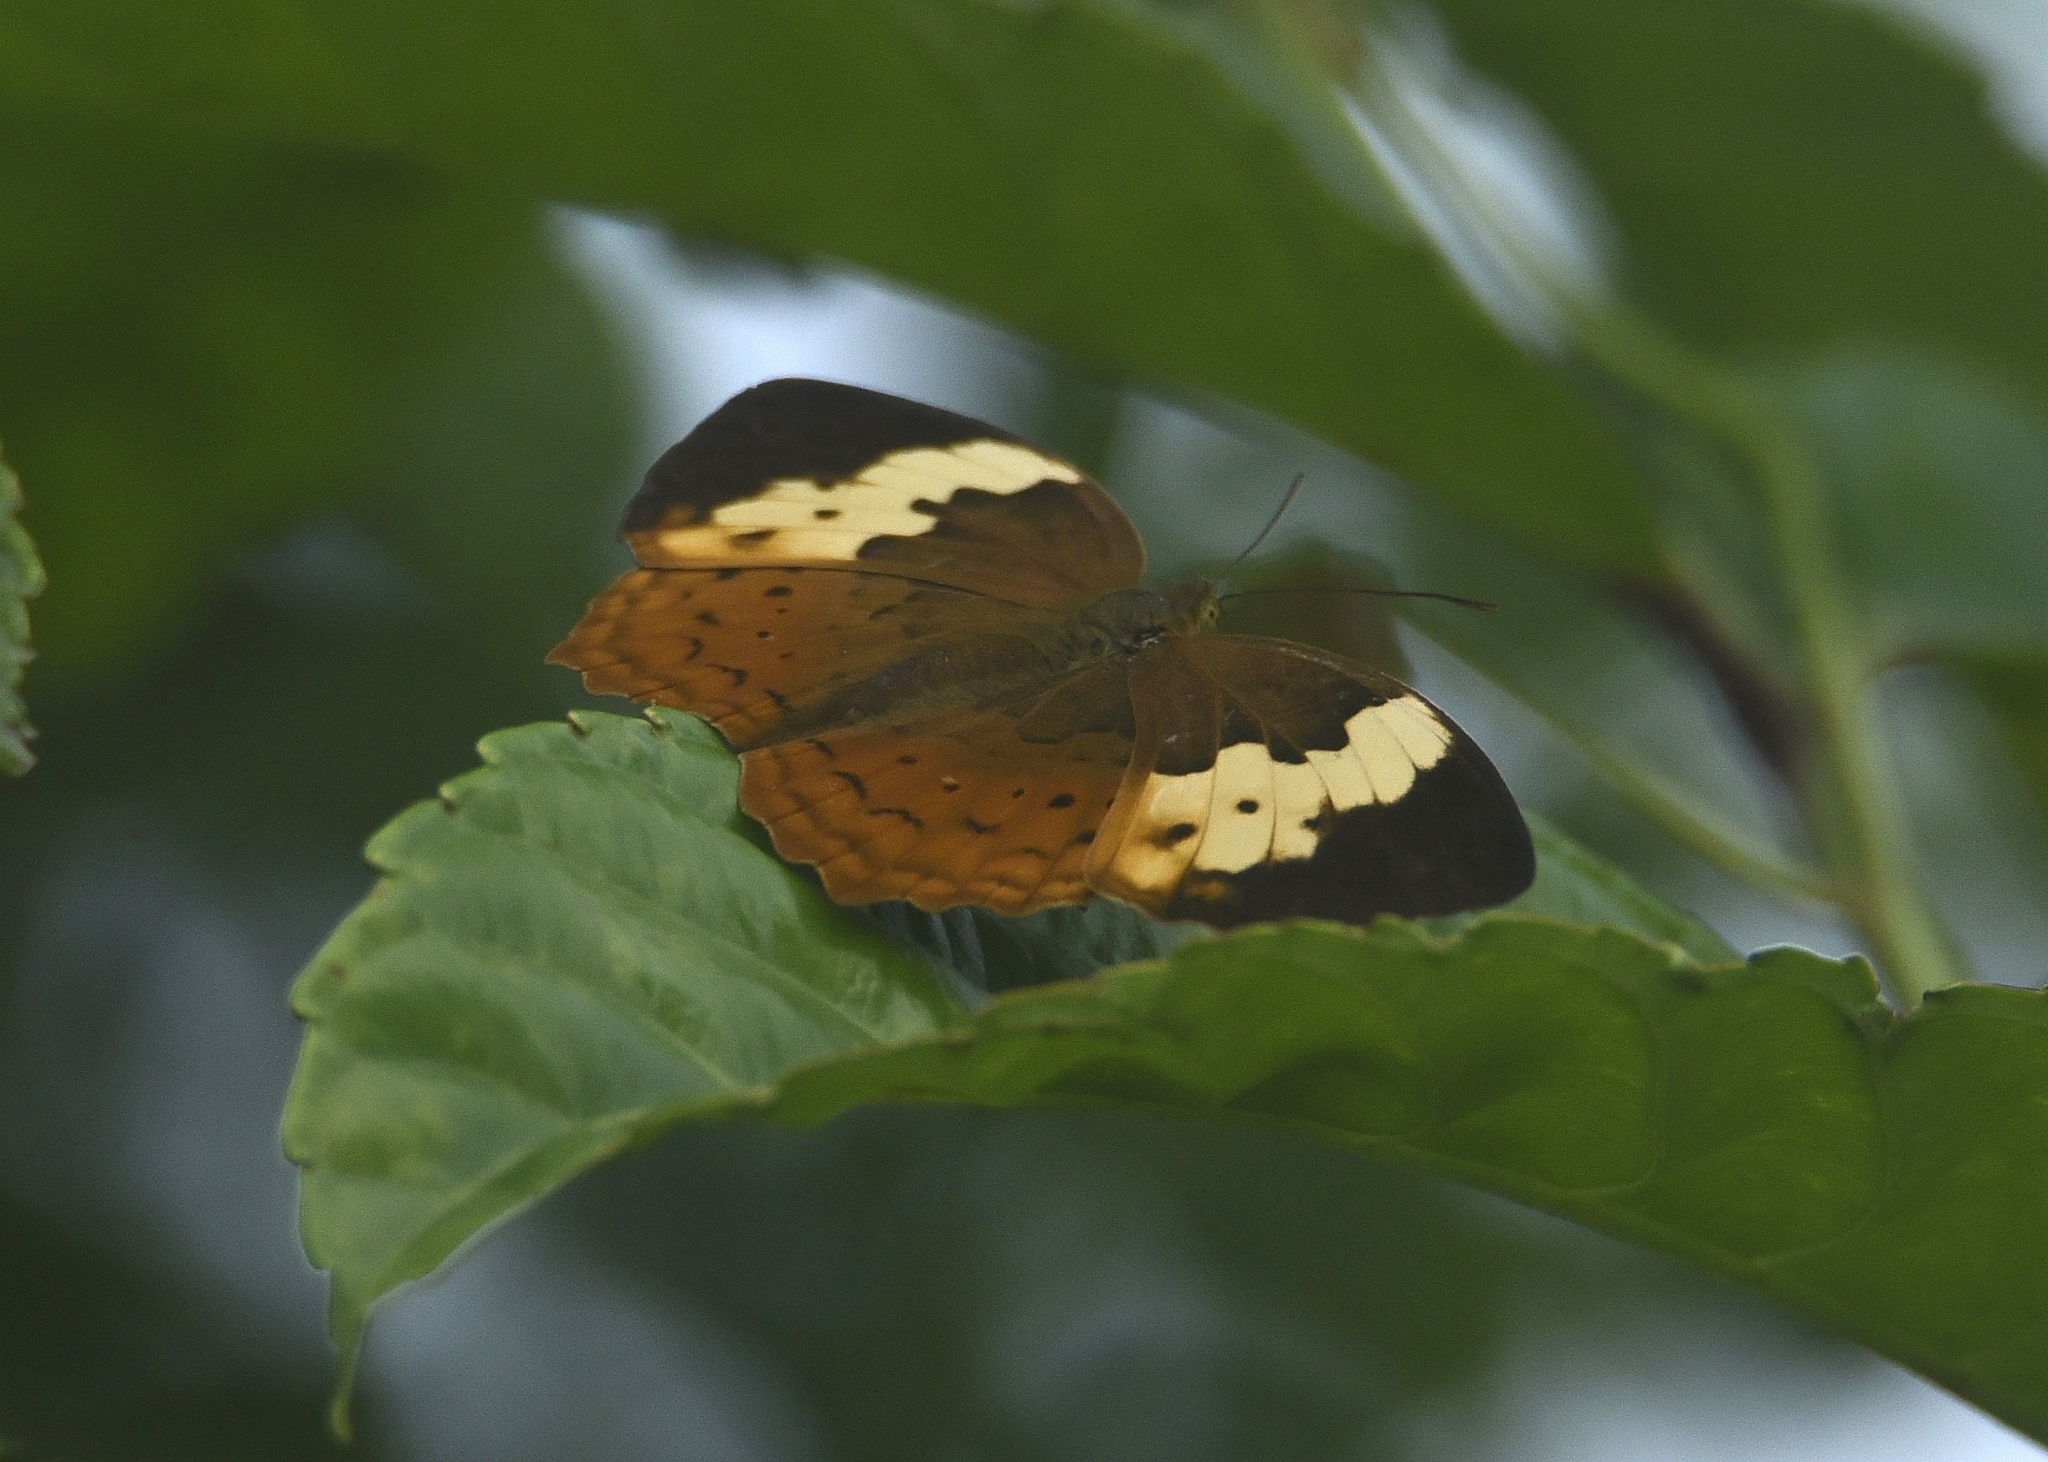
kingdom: Animalia
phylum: Arthropoda
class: Insecta
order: Lepidoptera
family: Nymphalidae
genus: Cupha
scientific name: Cupha erymanthis
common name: Rustic
